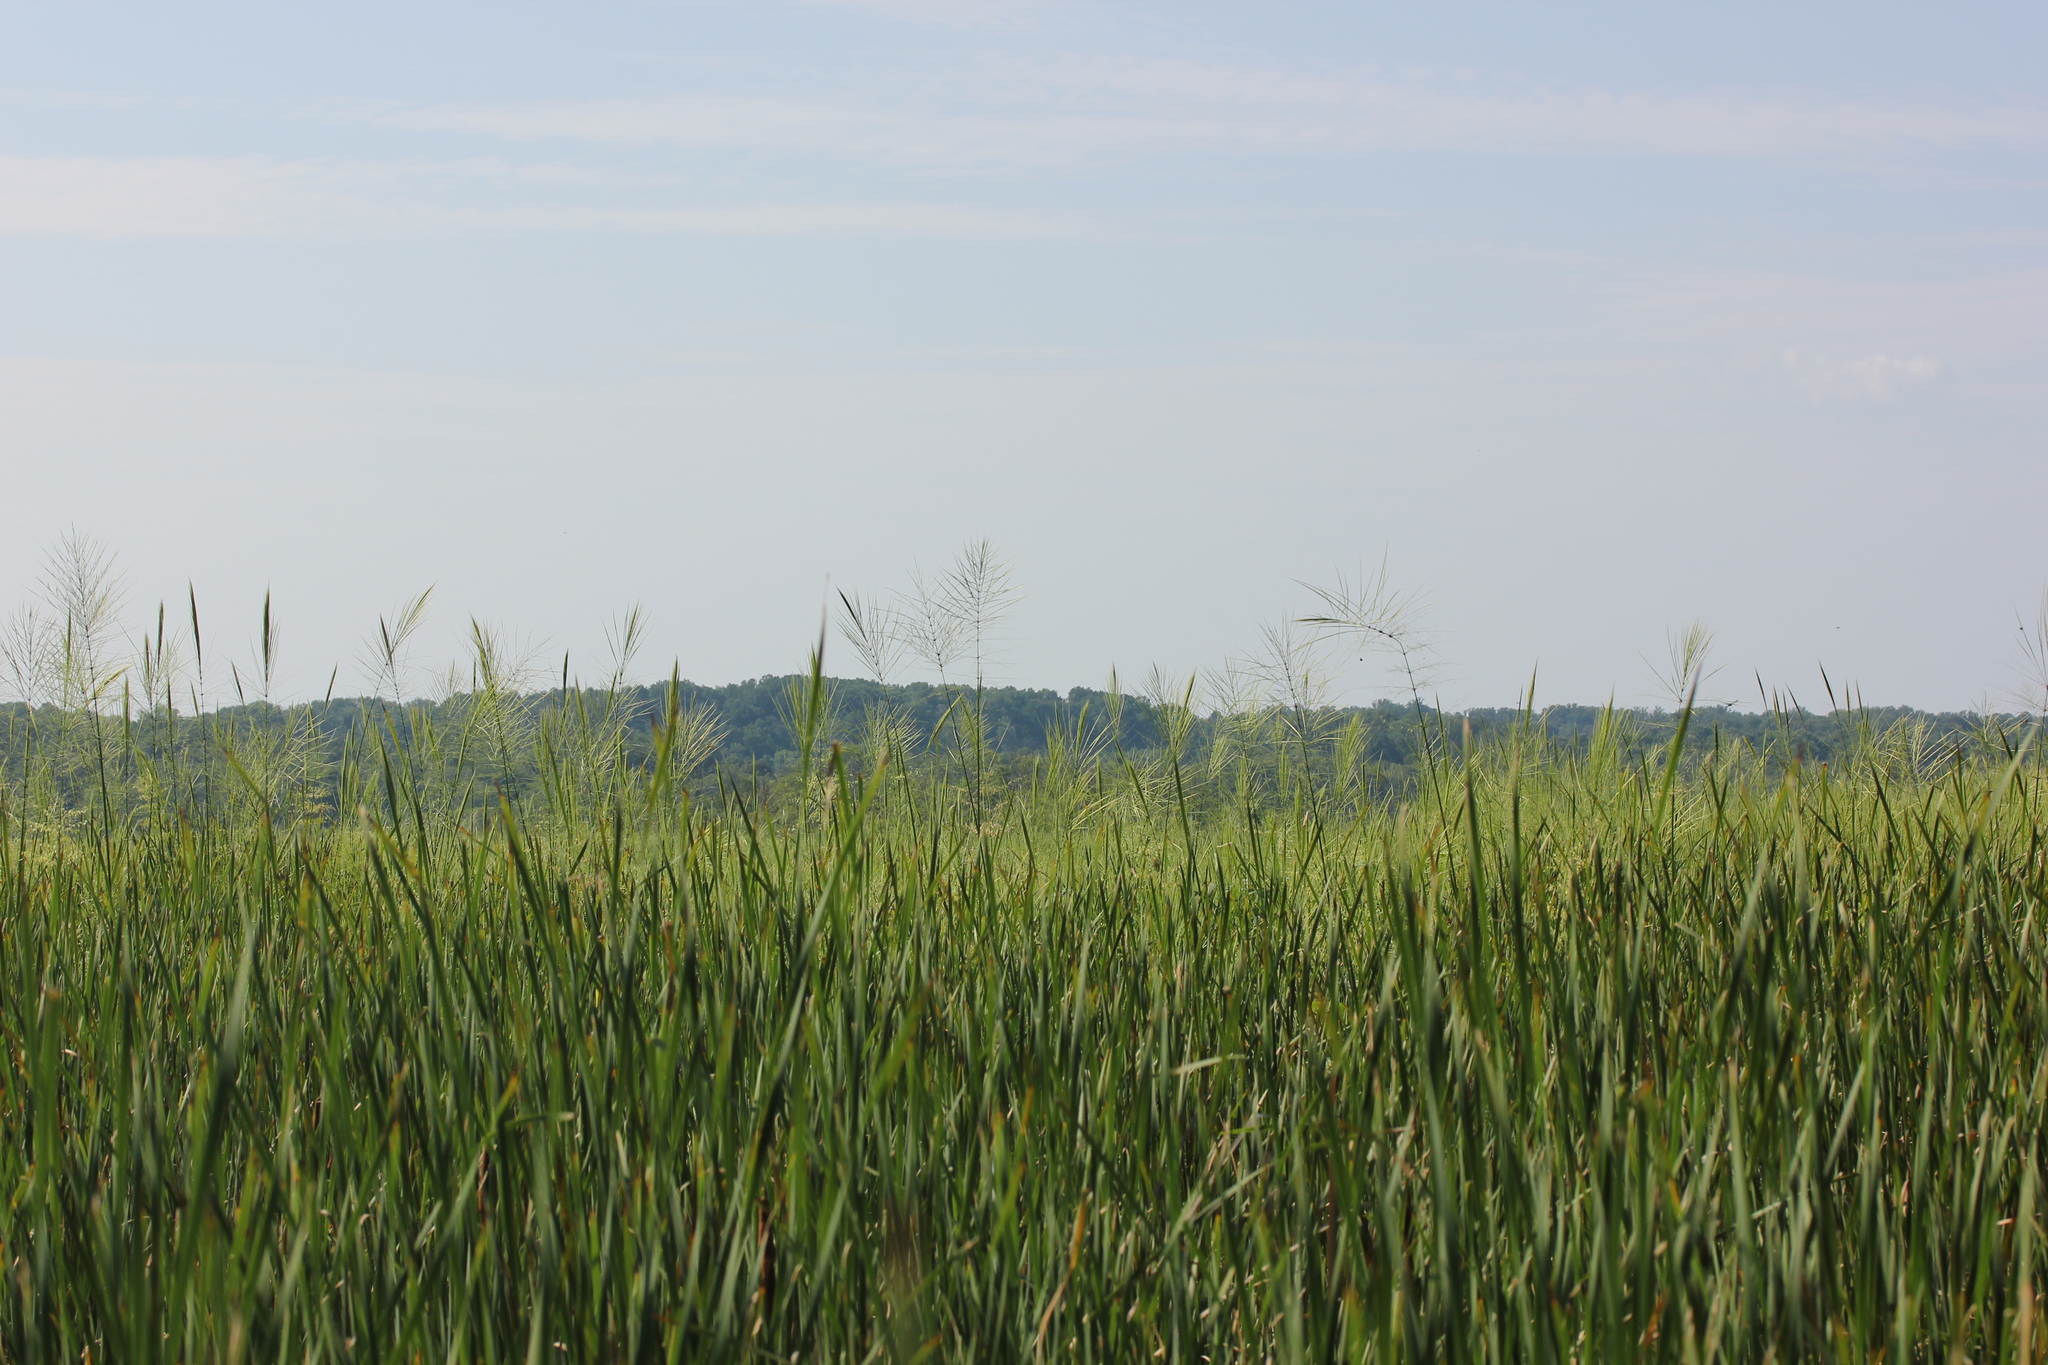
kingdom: Plantae
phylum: Tracheophyta
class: Liliopsida
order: Poales
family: Poaceae
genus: Zizania
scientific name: Zizania aquatica
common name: Annual wildrice
